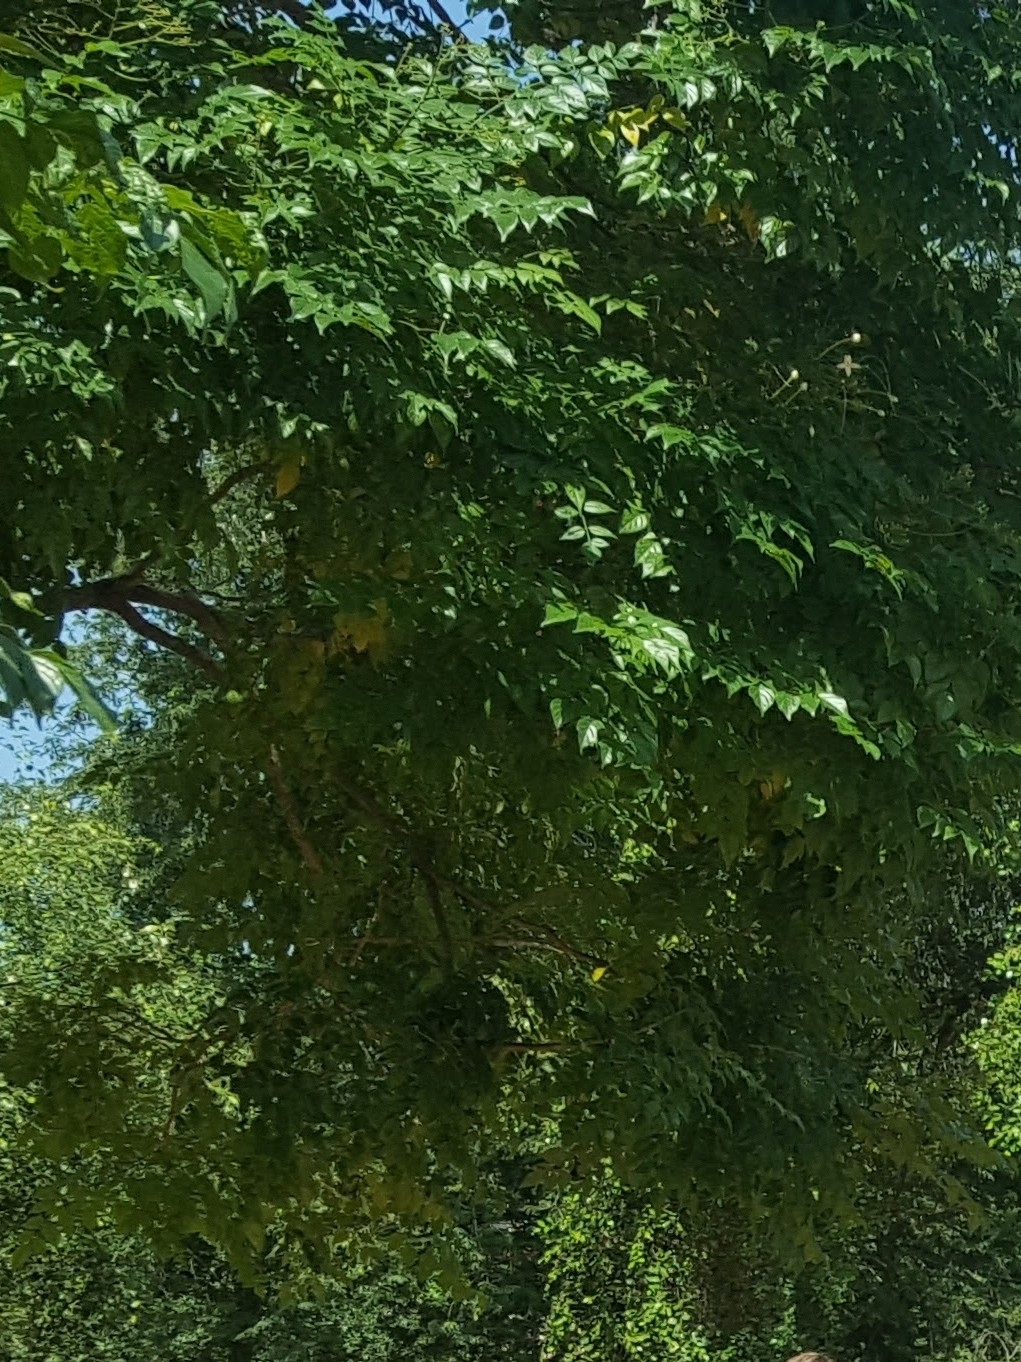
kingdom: Plantae
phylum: Tracheophyta
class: Magnoliopsida
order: Malpighiales
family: Euphorbiaceae
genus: Neoshirakia
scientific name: Neoshirakia japonica
